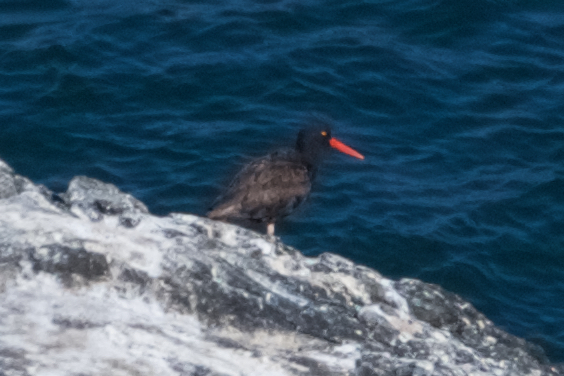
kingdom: Animalia
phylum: Chordata
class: Aves
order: Charadriiformes
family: Haematopodidae
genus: Haematopus
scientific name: Haematopus bachmani
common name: Black oystercatcher
